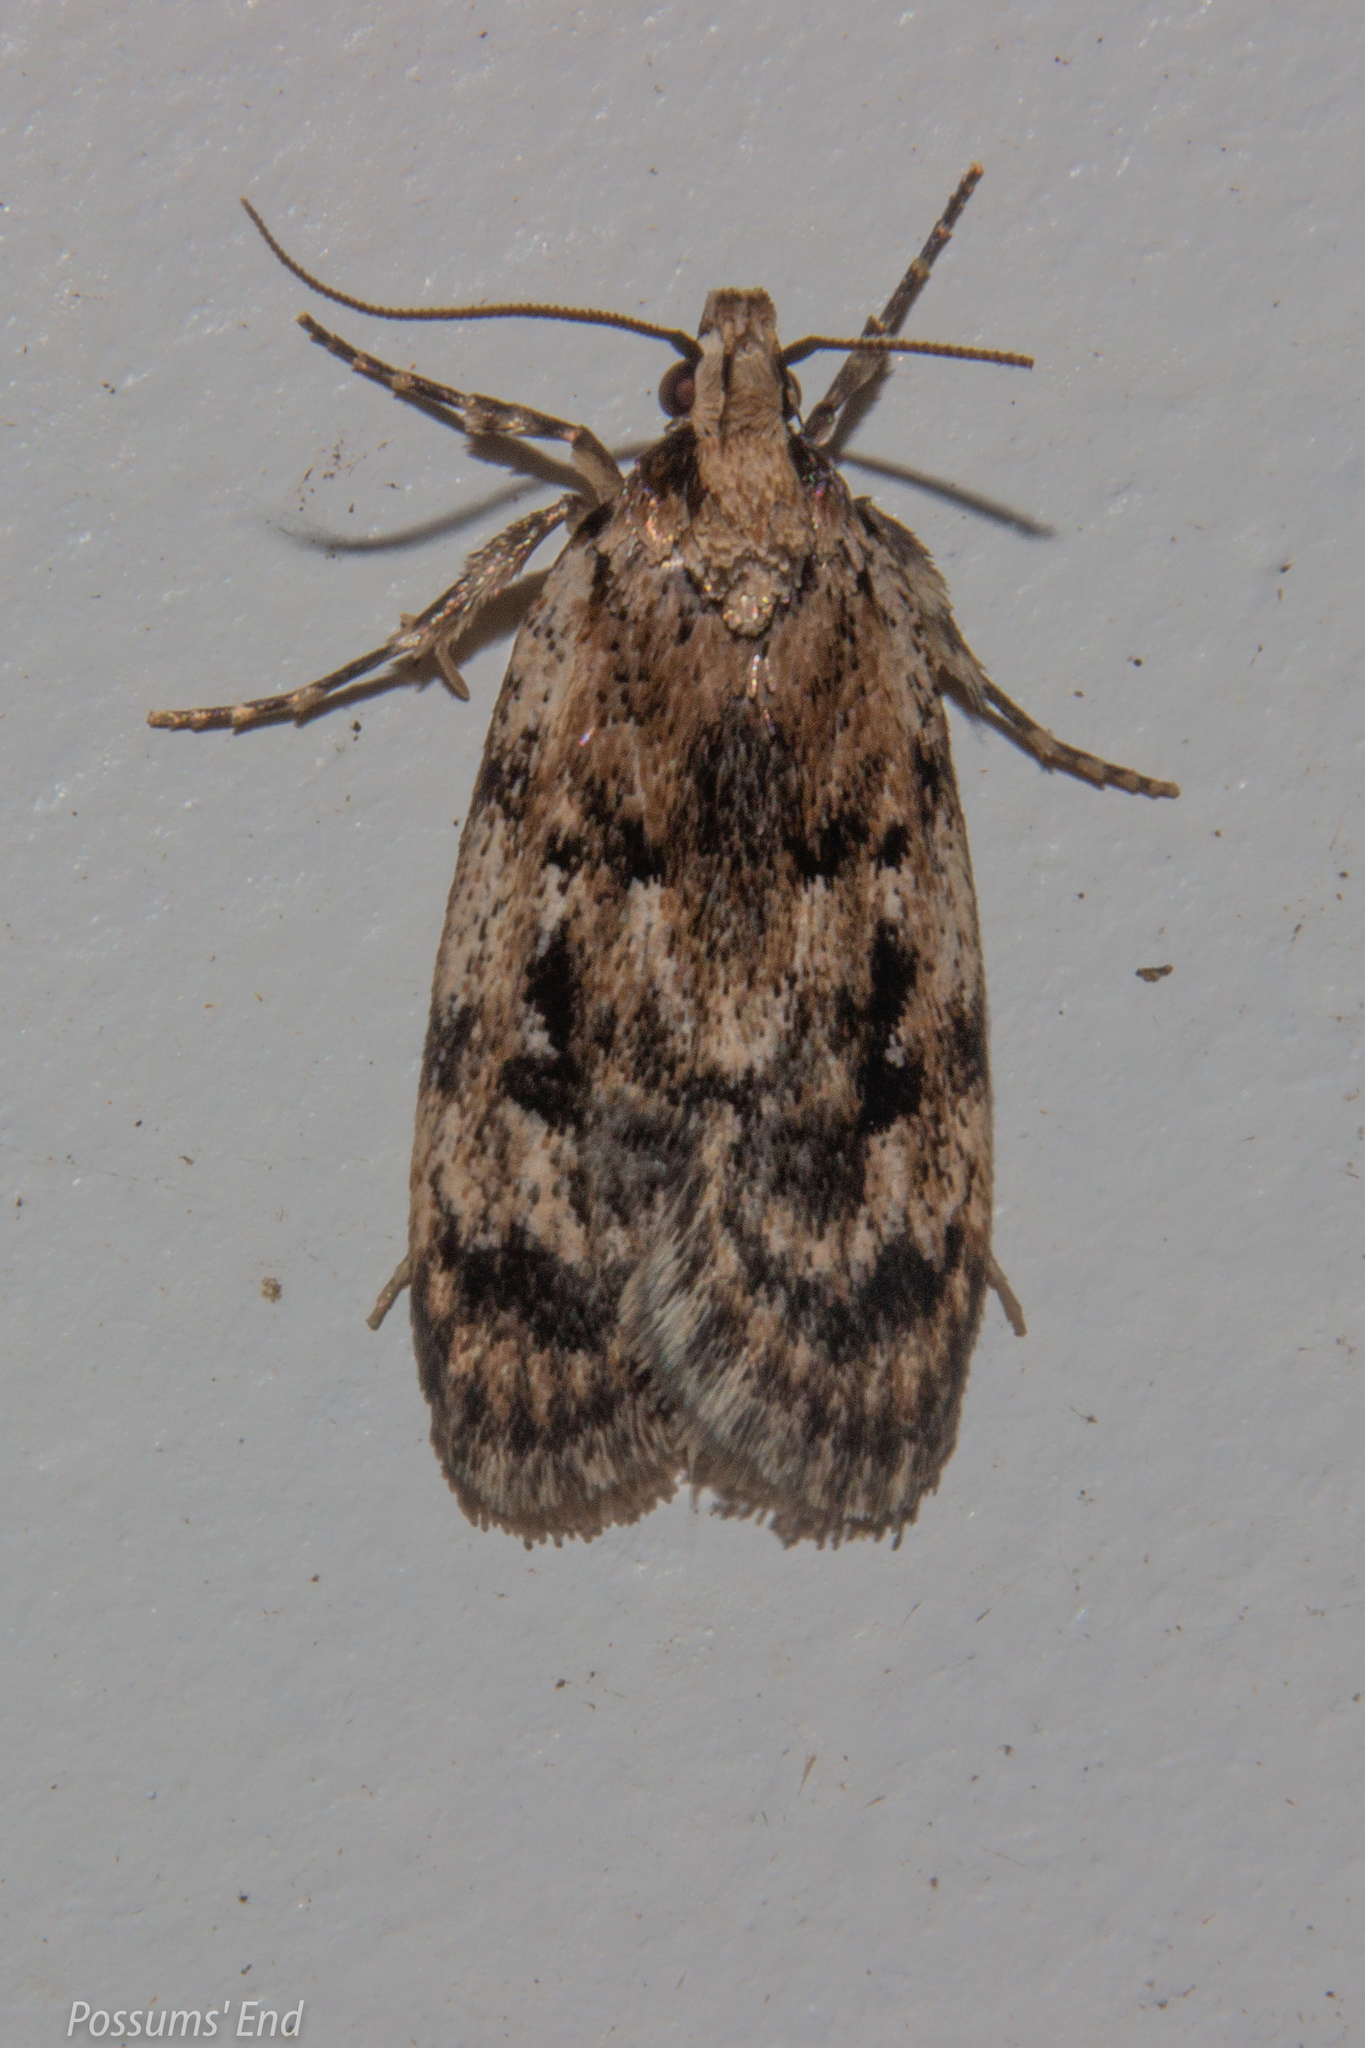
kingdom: Animalia
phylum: Arthropoda
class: Insecta
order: Lepidoptera
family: Oecophoridae
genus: Barea
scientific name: Barea exarcha
